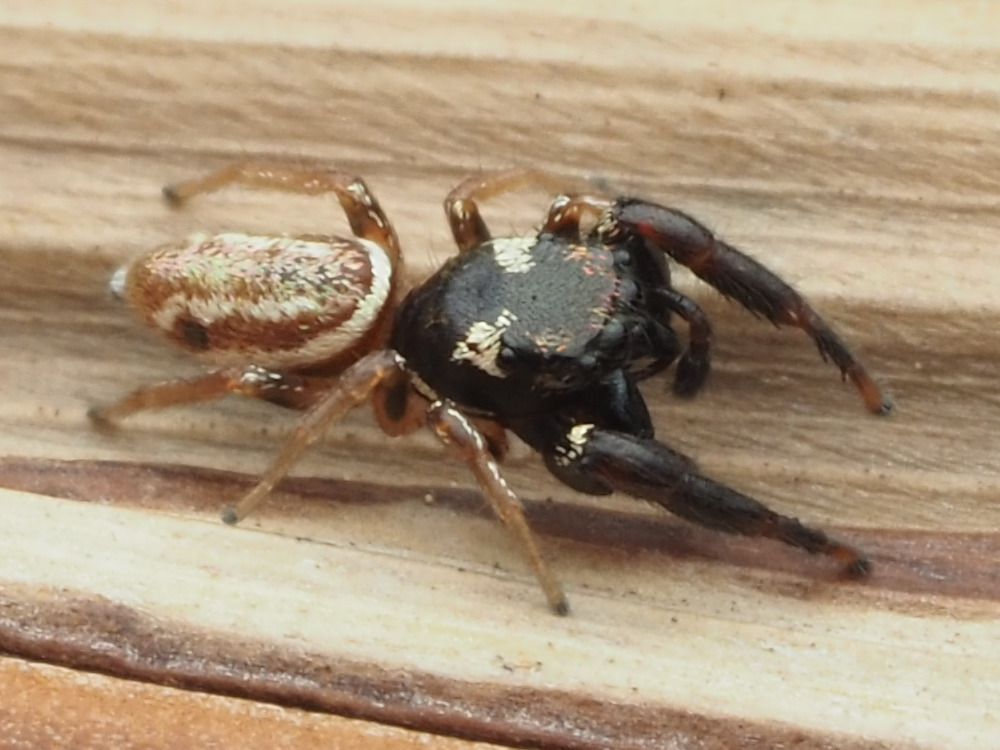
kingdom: Animalia
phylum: Arthropoda
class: Arachnida
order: Araneae
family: Salticidae
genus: Sassacus
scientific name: Sassacus vitis
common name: Jumping spiders
